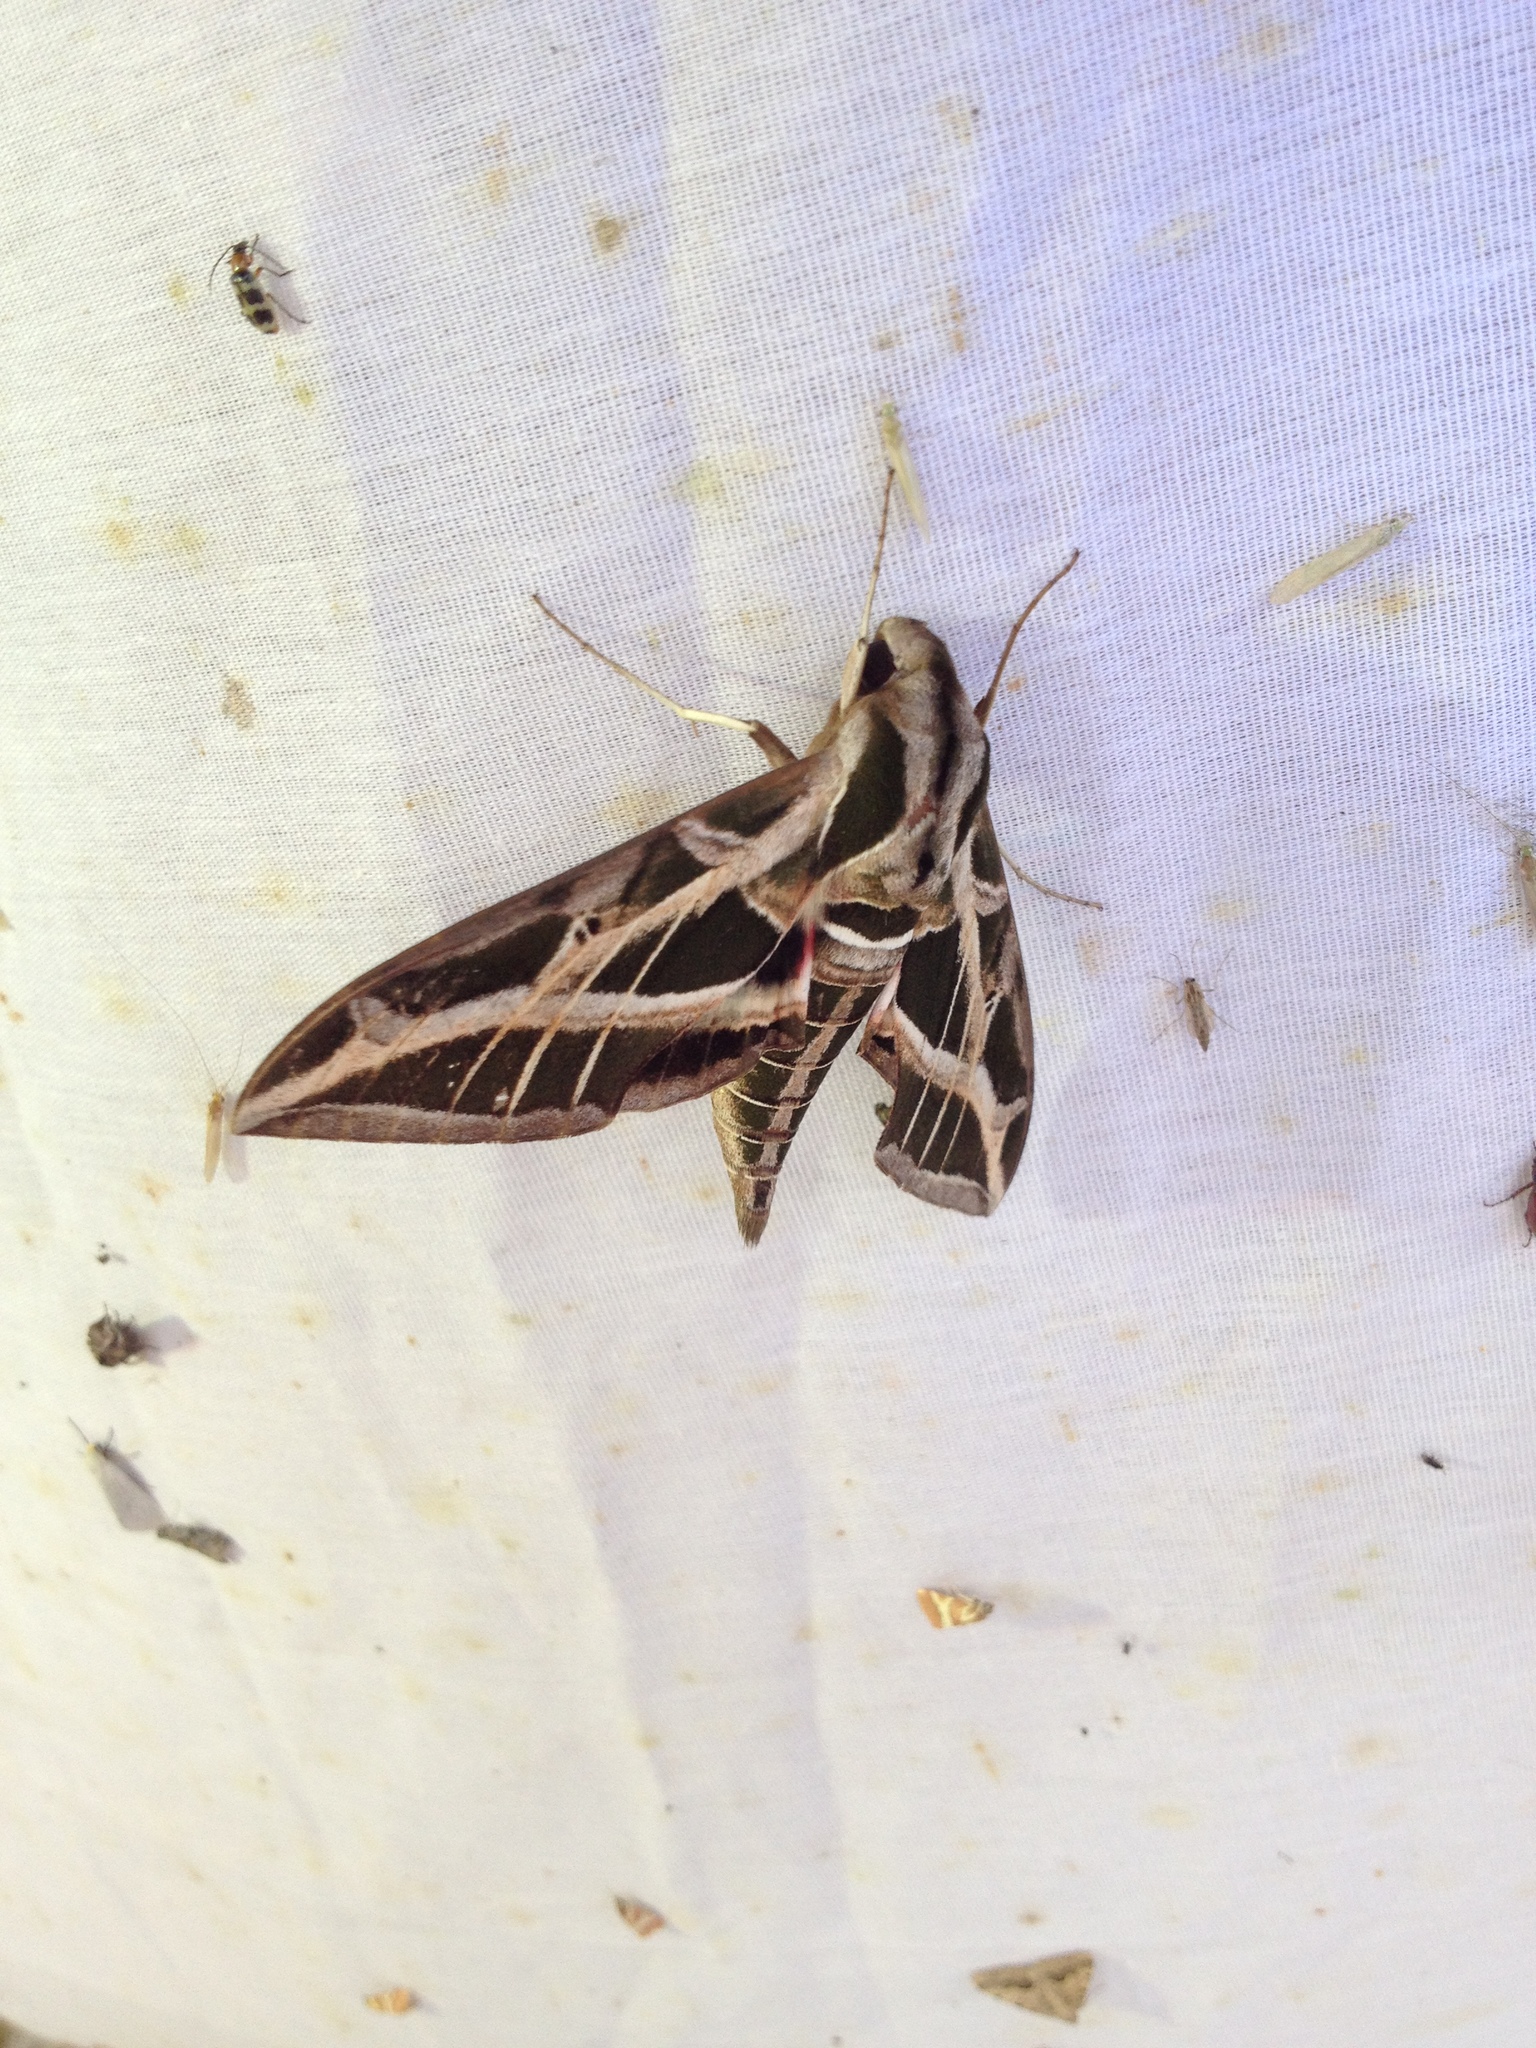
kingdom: Animalia
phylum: Arthropoda
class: Insecta
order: Lepidoptera
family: Sphingidae
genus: Eumorpha
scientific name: Eumorpha vitis
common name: Vine sphinx
